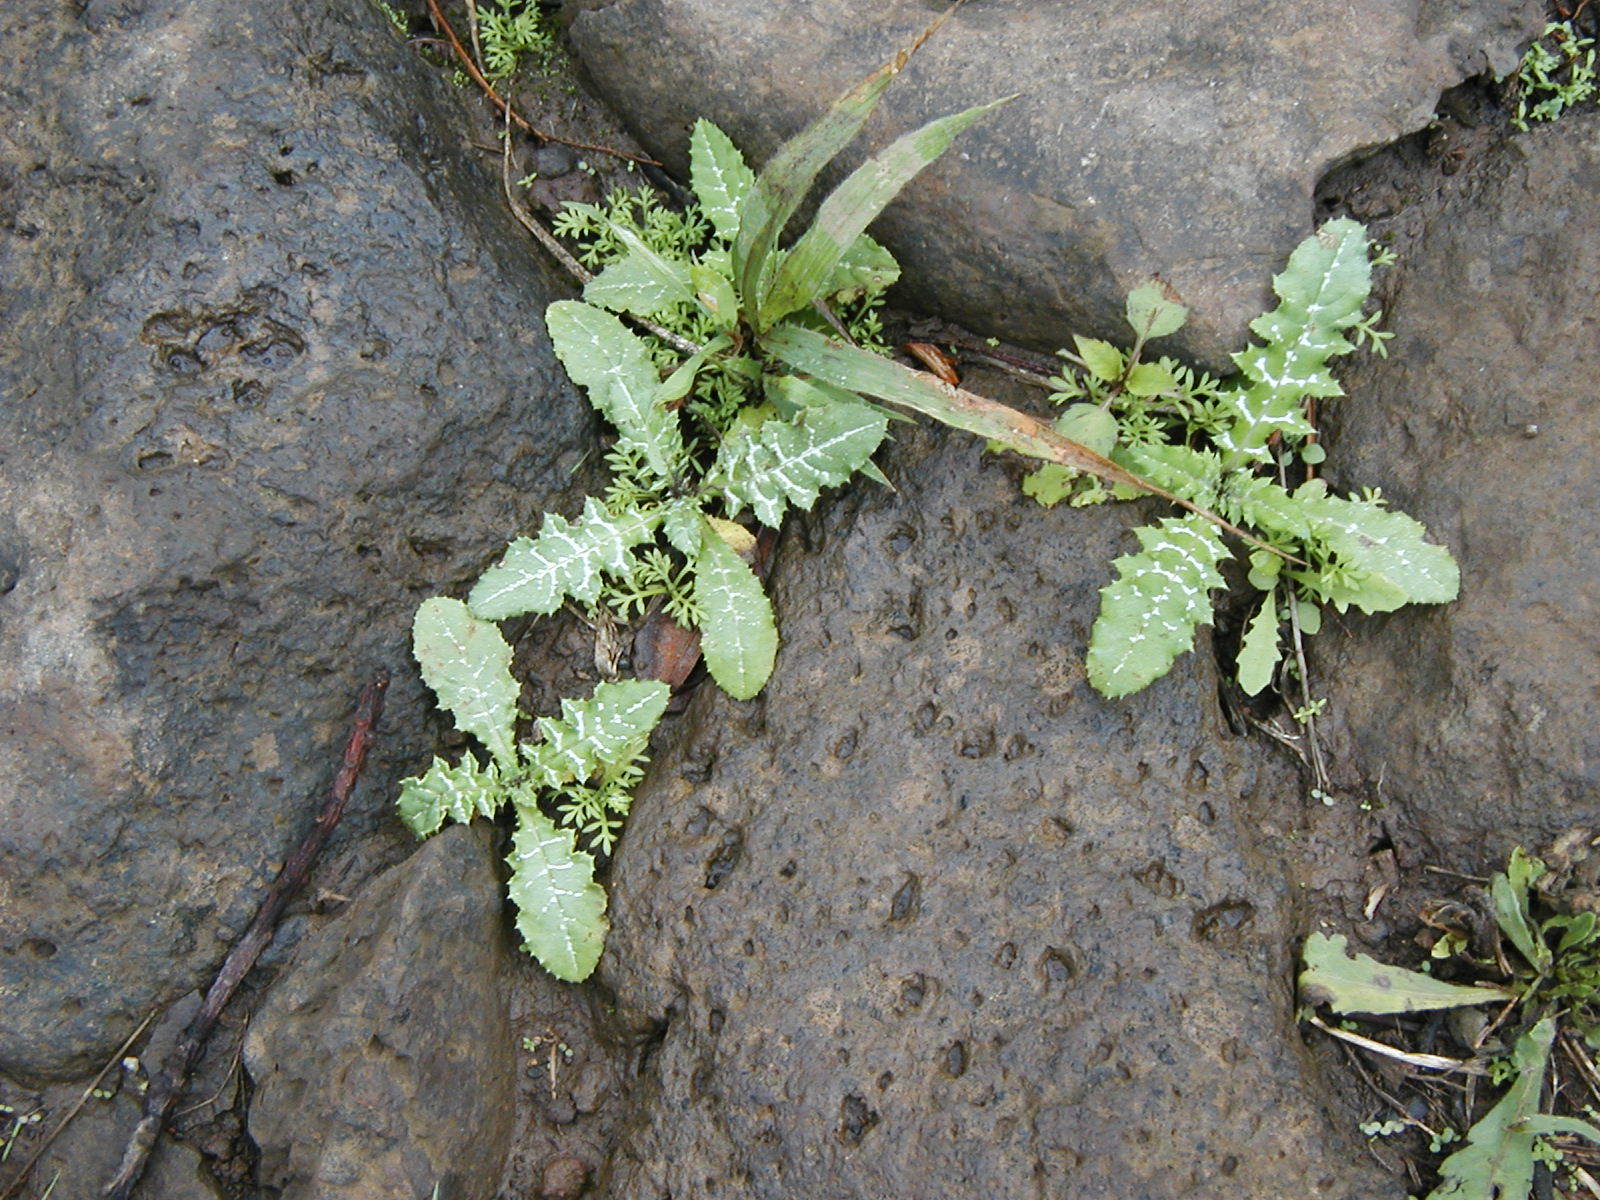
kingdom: Plantae
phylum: Tracheophyta
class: Magnoliopsida
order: Asterales
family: Asteraceae
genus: Galactites
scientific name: Galactites tomentosa
